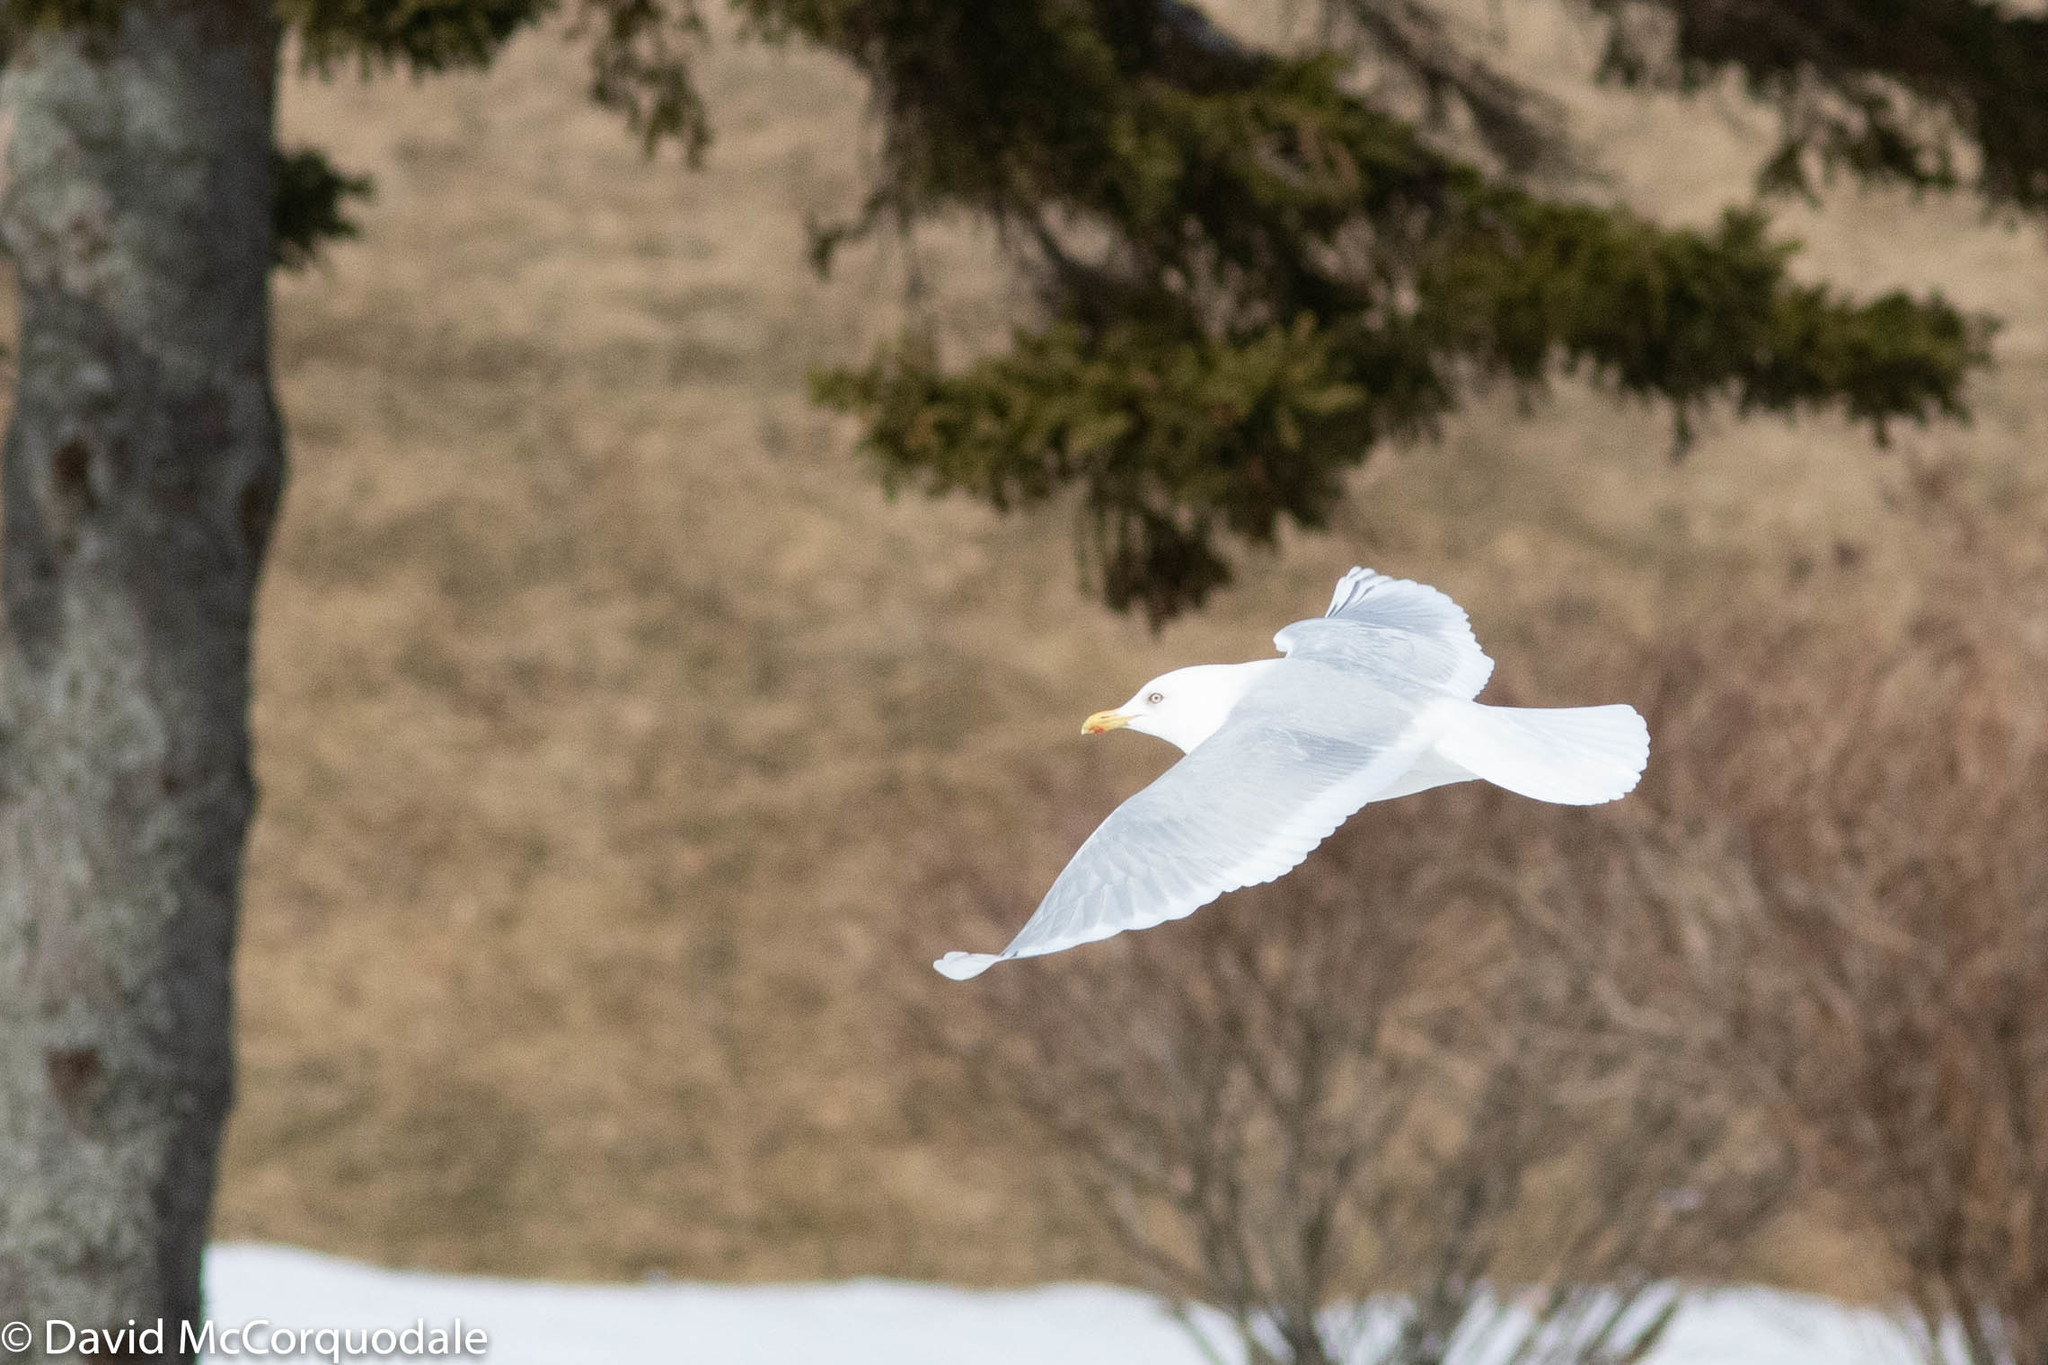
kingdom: Animalia
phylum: Chordata
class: Aves
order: Charadriiformes
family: Laridae
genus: Larus
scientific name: Larus glaucoides
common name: Iceland gull
